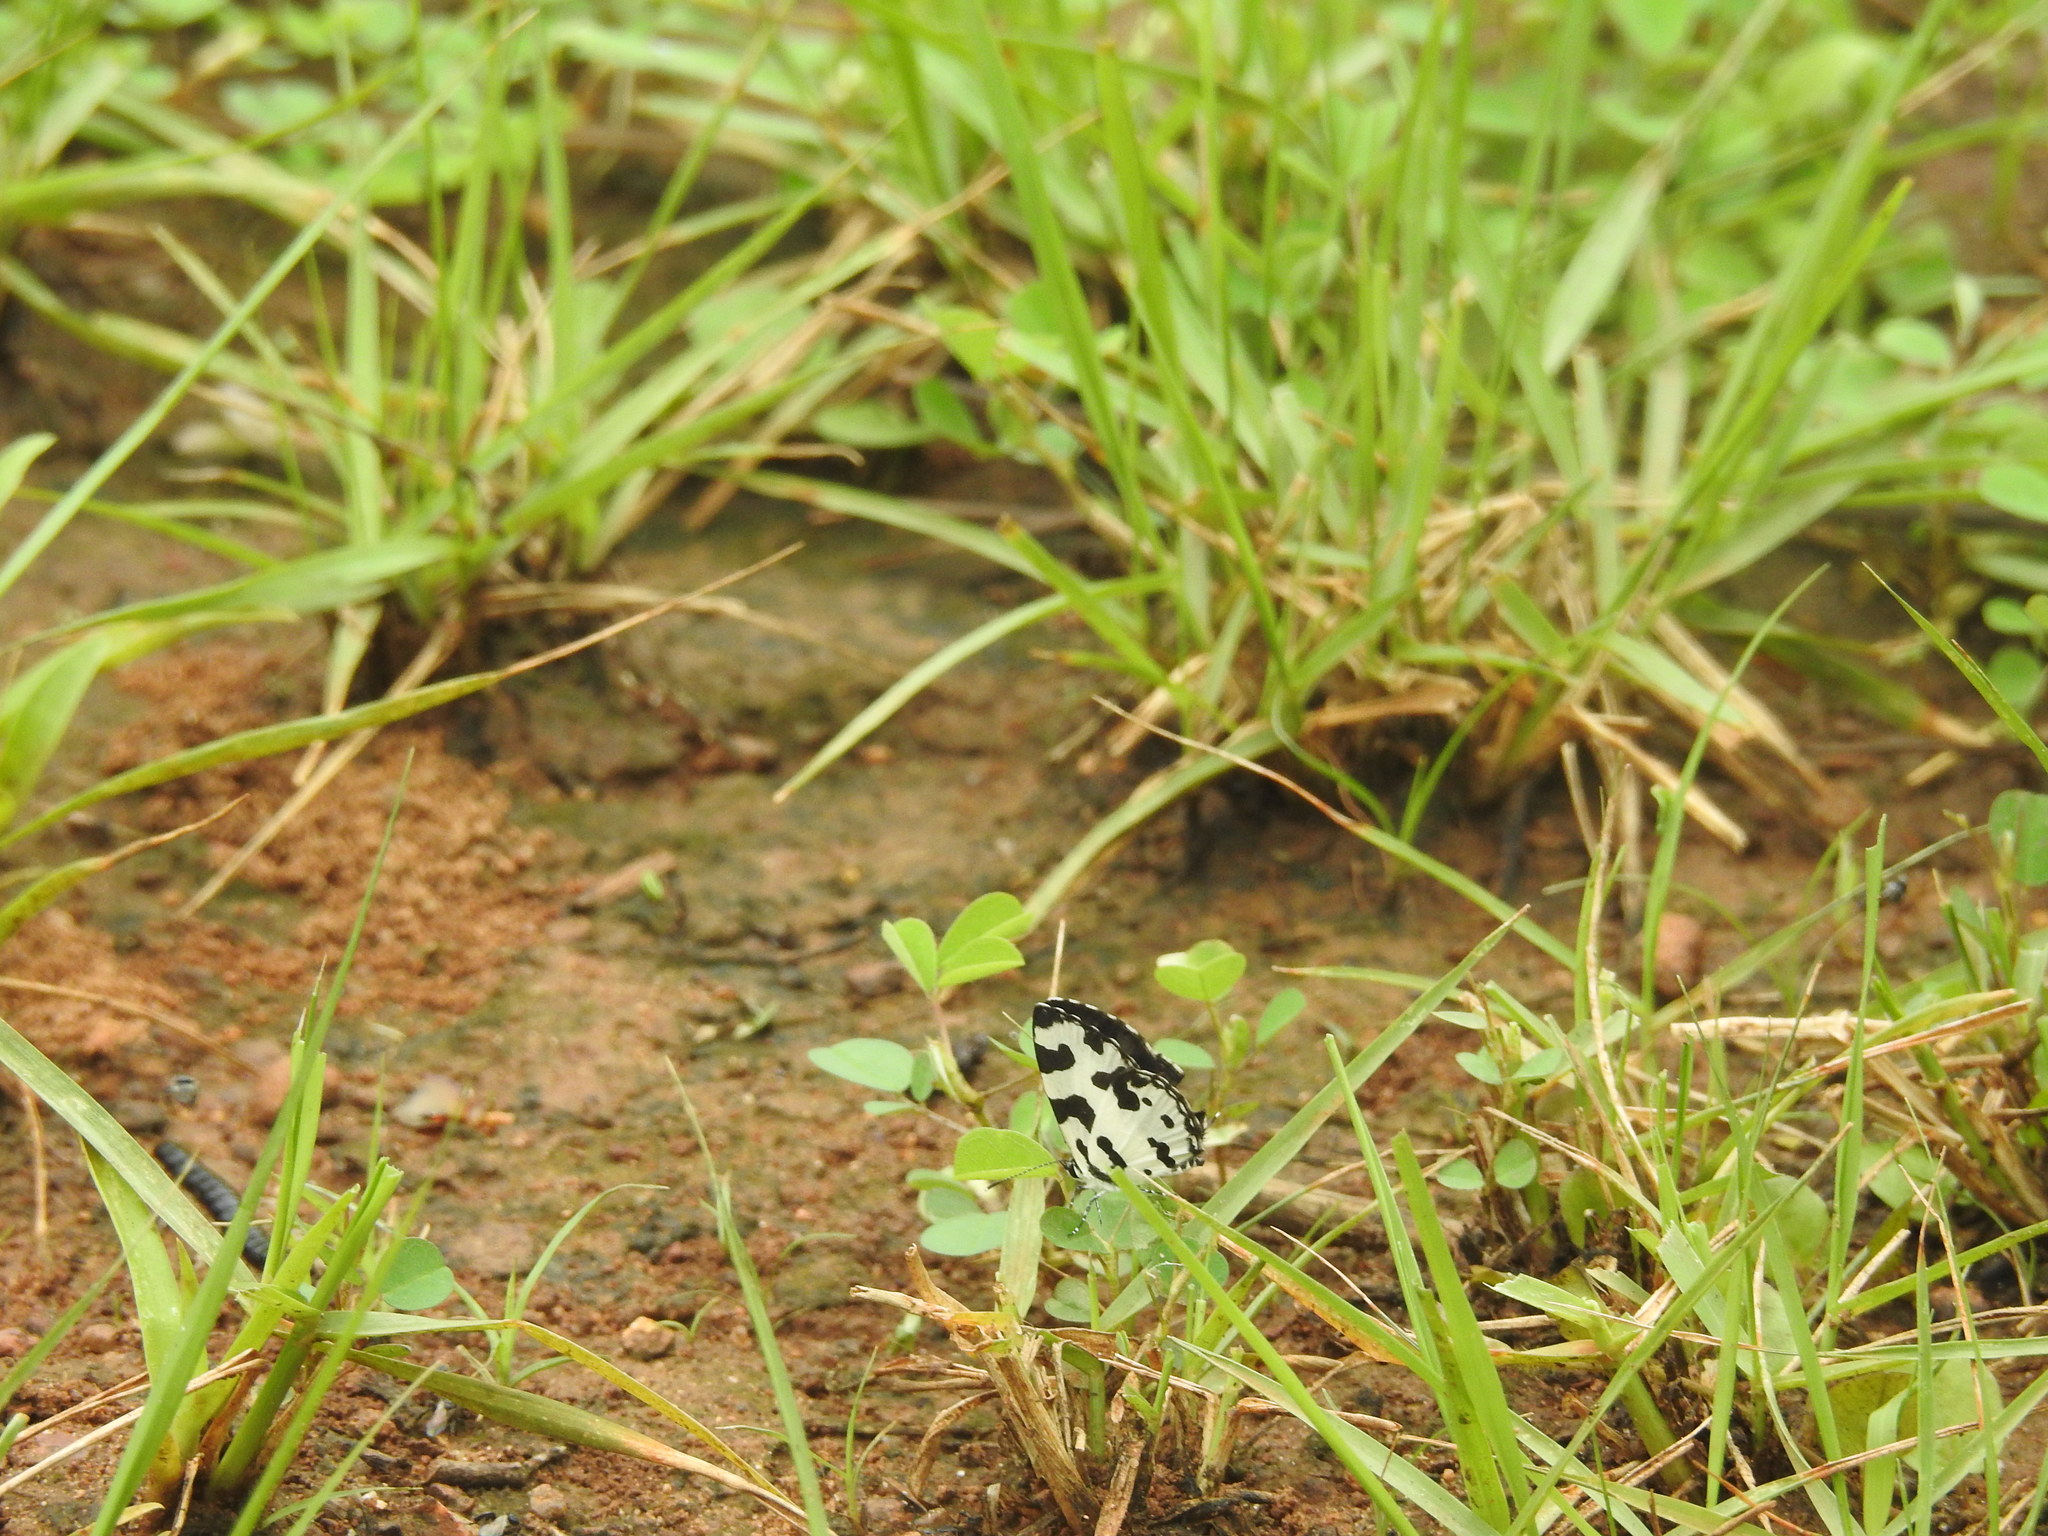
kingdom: Animalia
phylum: Arthropoda
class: Insecta
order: Lepidoptera
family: Lycaenidae
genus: Caleta
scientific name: Caleta decidia
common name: Angled pierrot
